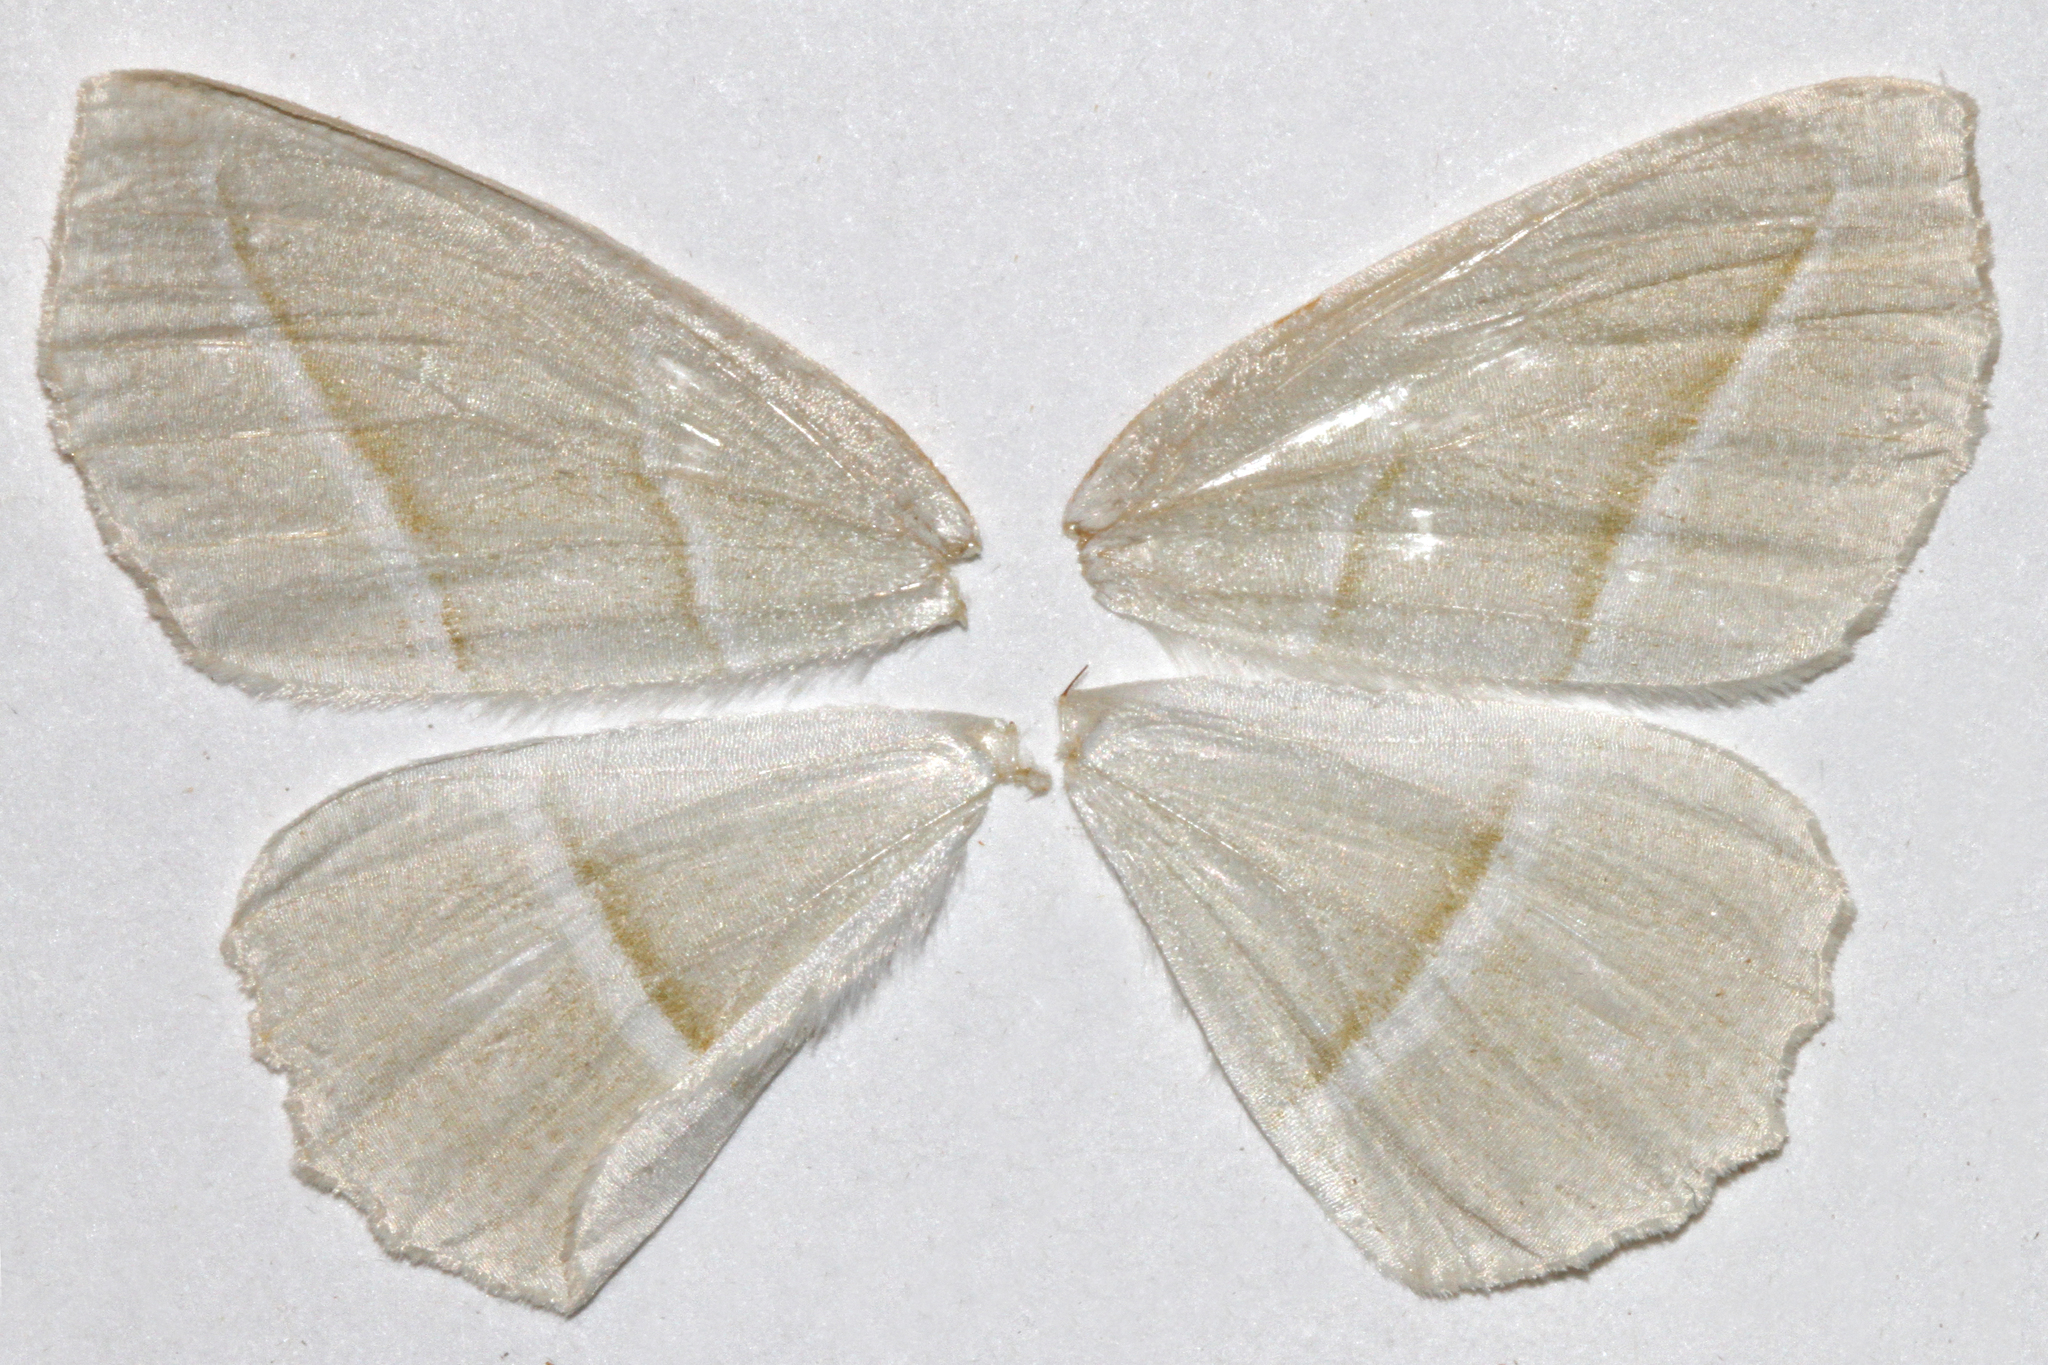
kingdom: Animalia
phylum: Arthropoda
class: Insecta
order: Lepidoptera
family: Geometridae
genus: Campaea
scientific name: Campaea perlata
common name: Fringed looper
